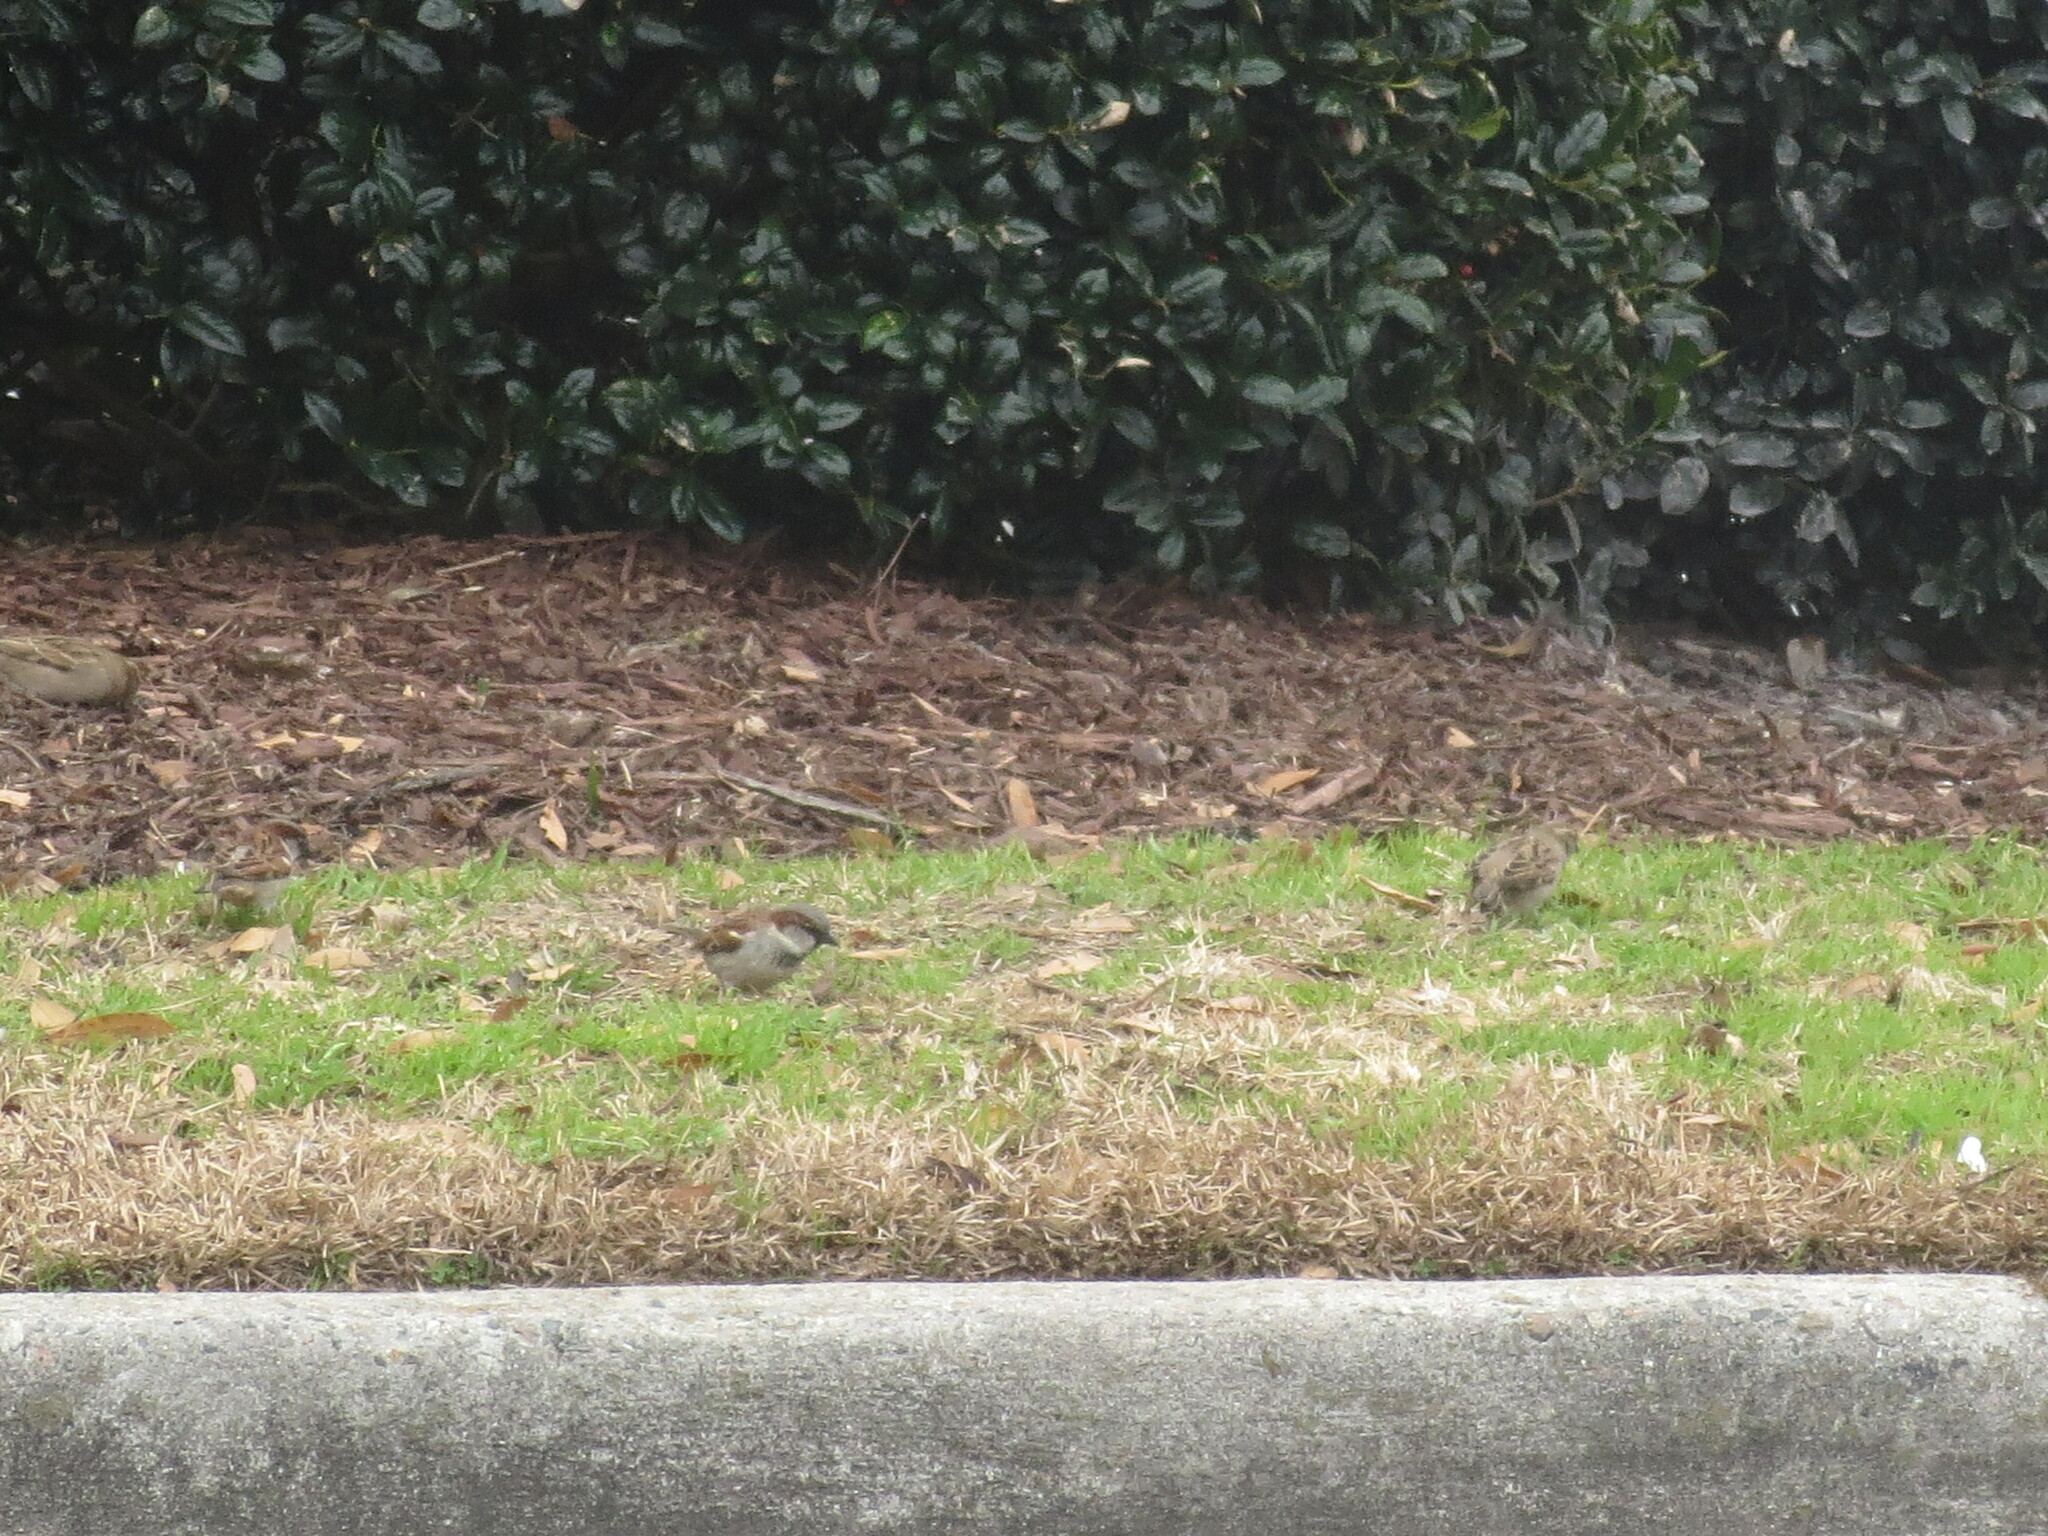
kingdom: Animalia
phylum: Chordata
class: Aves
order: Passeriformes
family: Passeridae
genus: Passer
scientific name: Passer domesticus
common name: House sparrow
